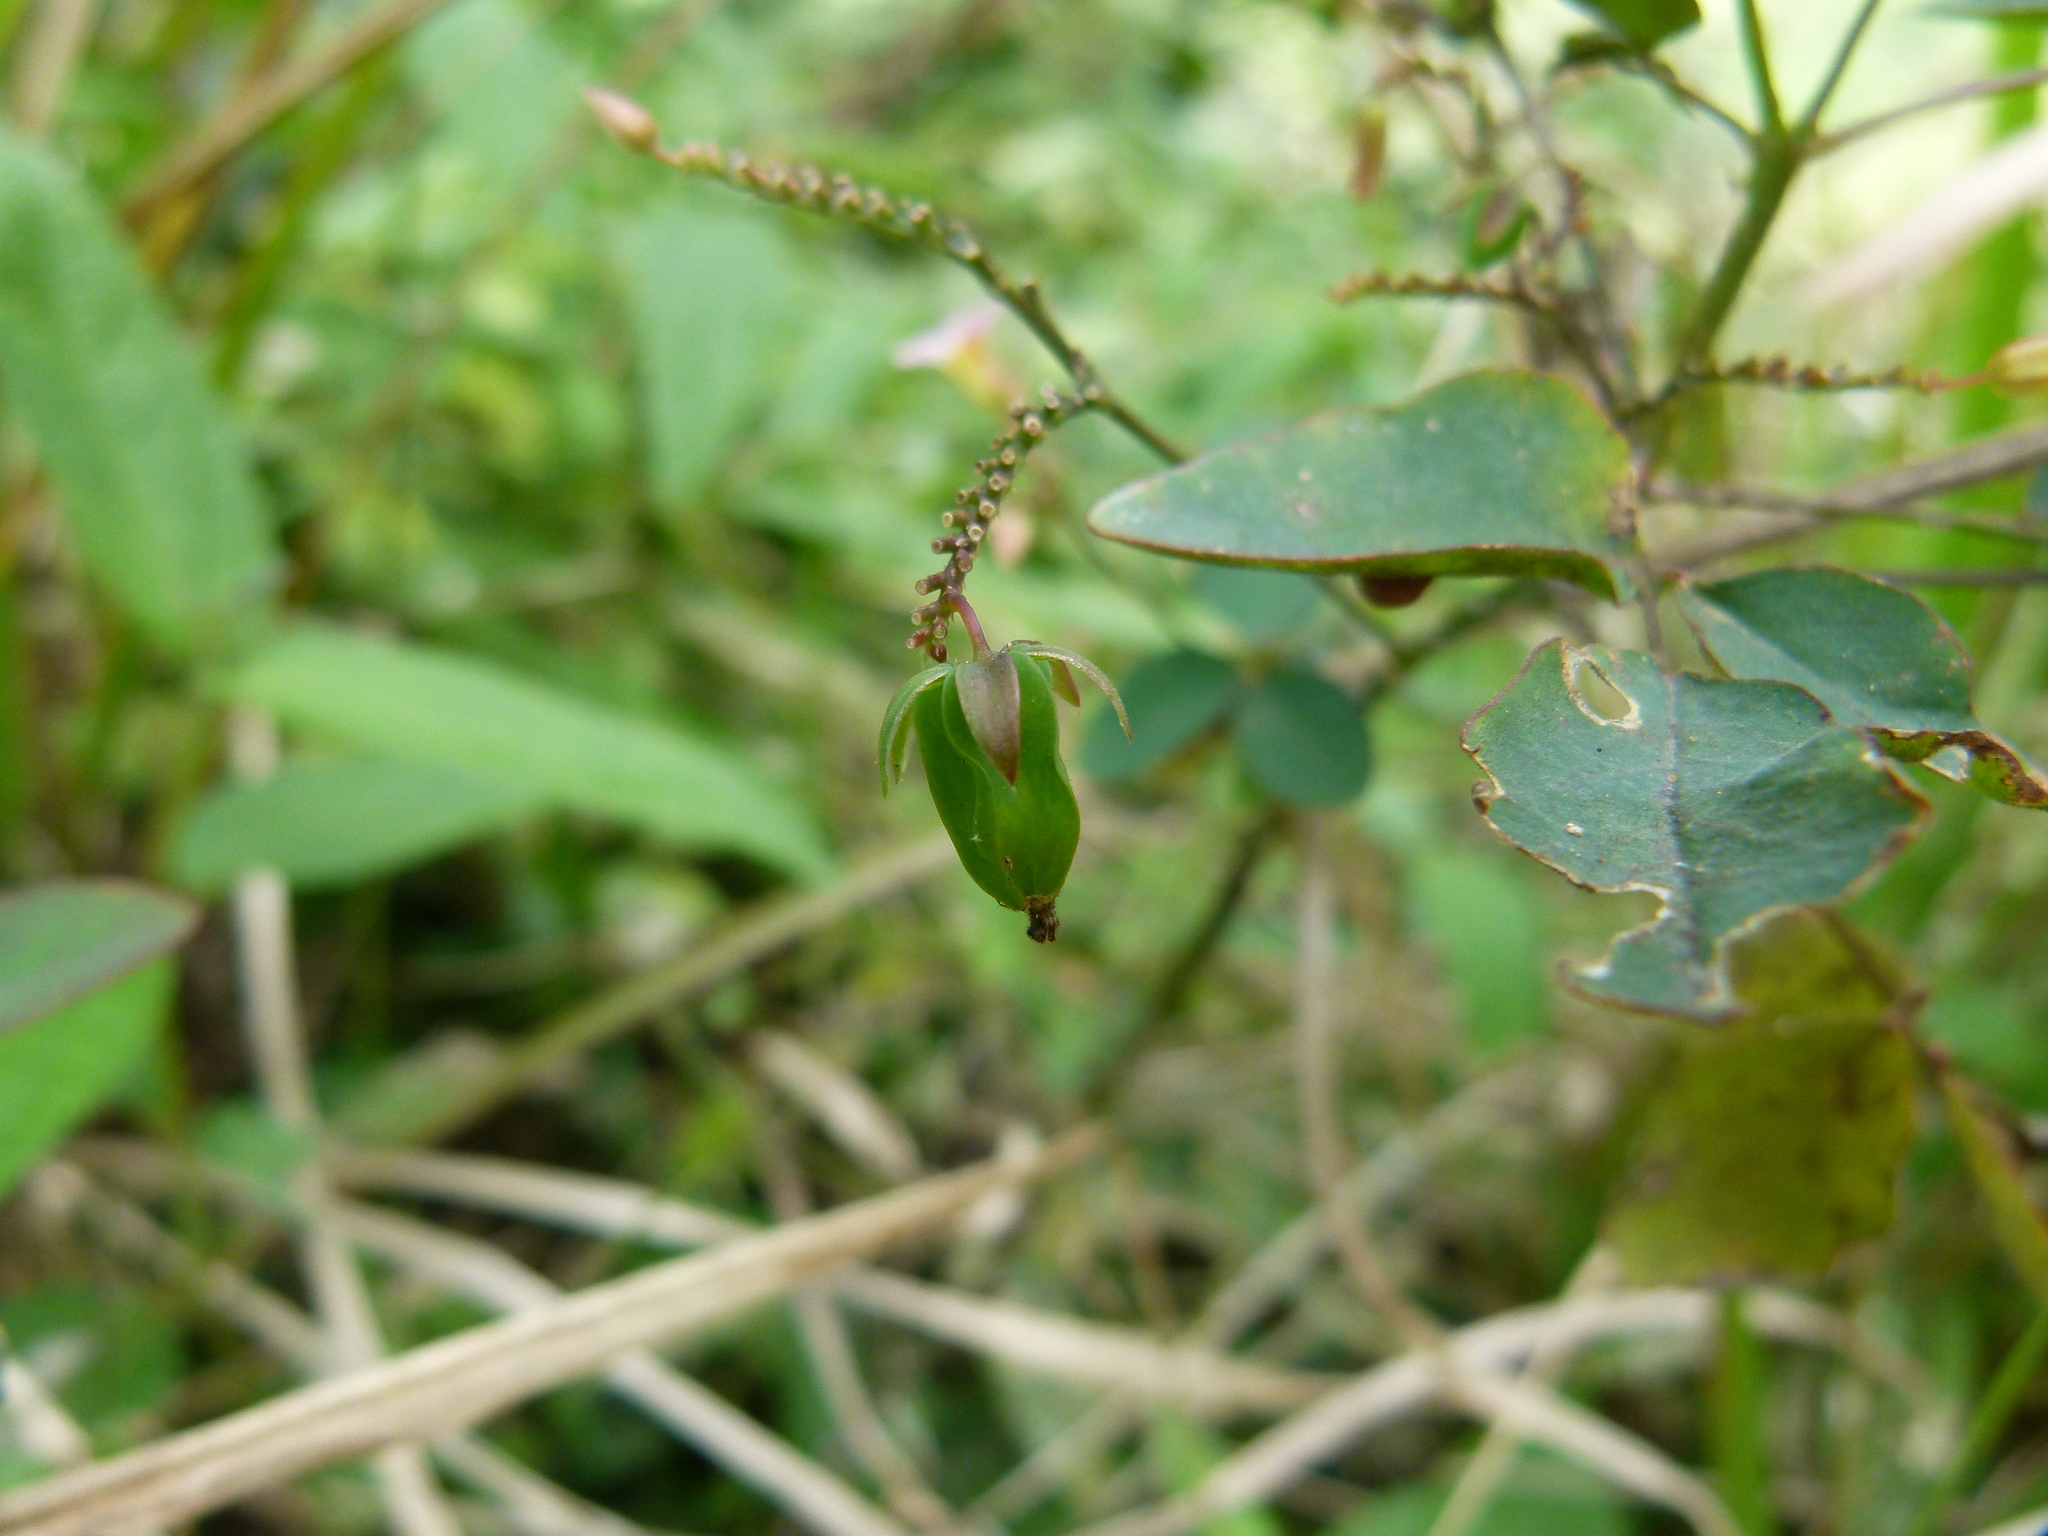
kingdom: Plantae
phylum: Tracheophyta
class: Magnoliopsida
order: Oxalidales
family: Oxalidaceae
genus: Oxalis
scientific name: Oxalis barrelieri
